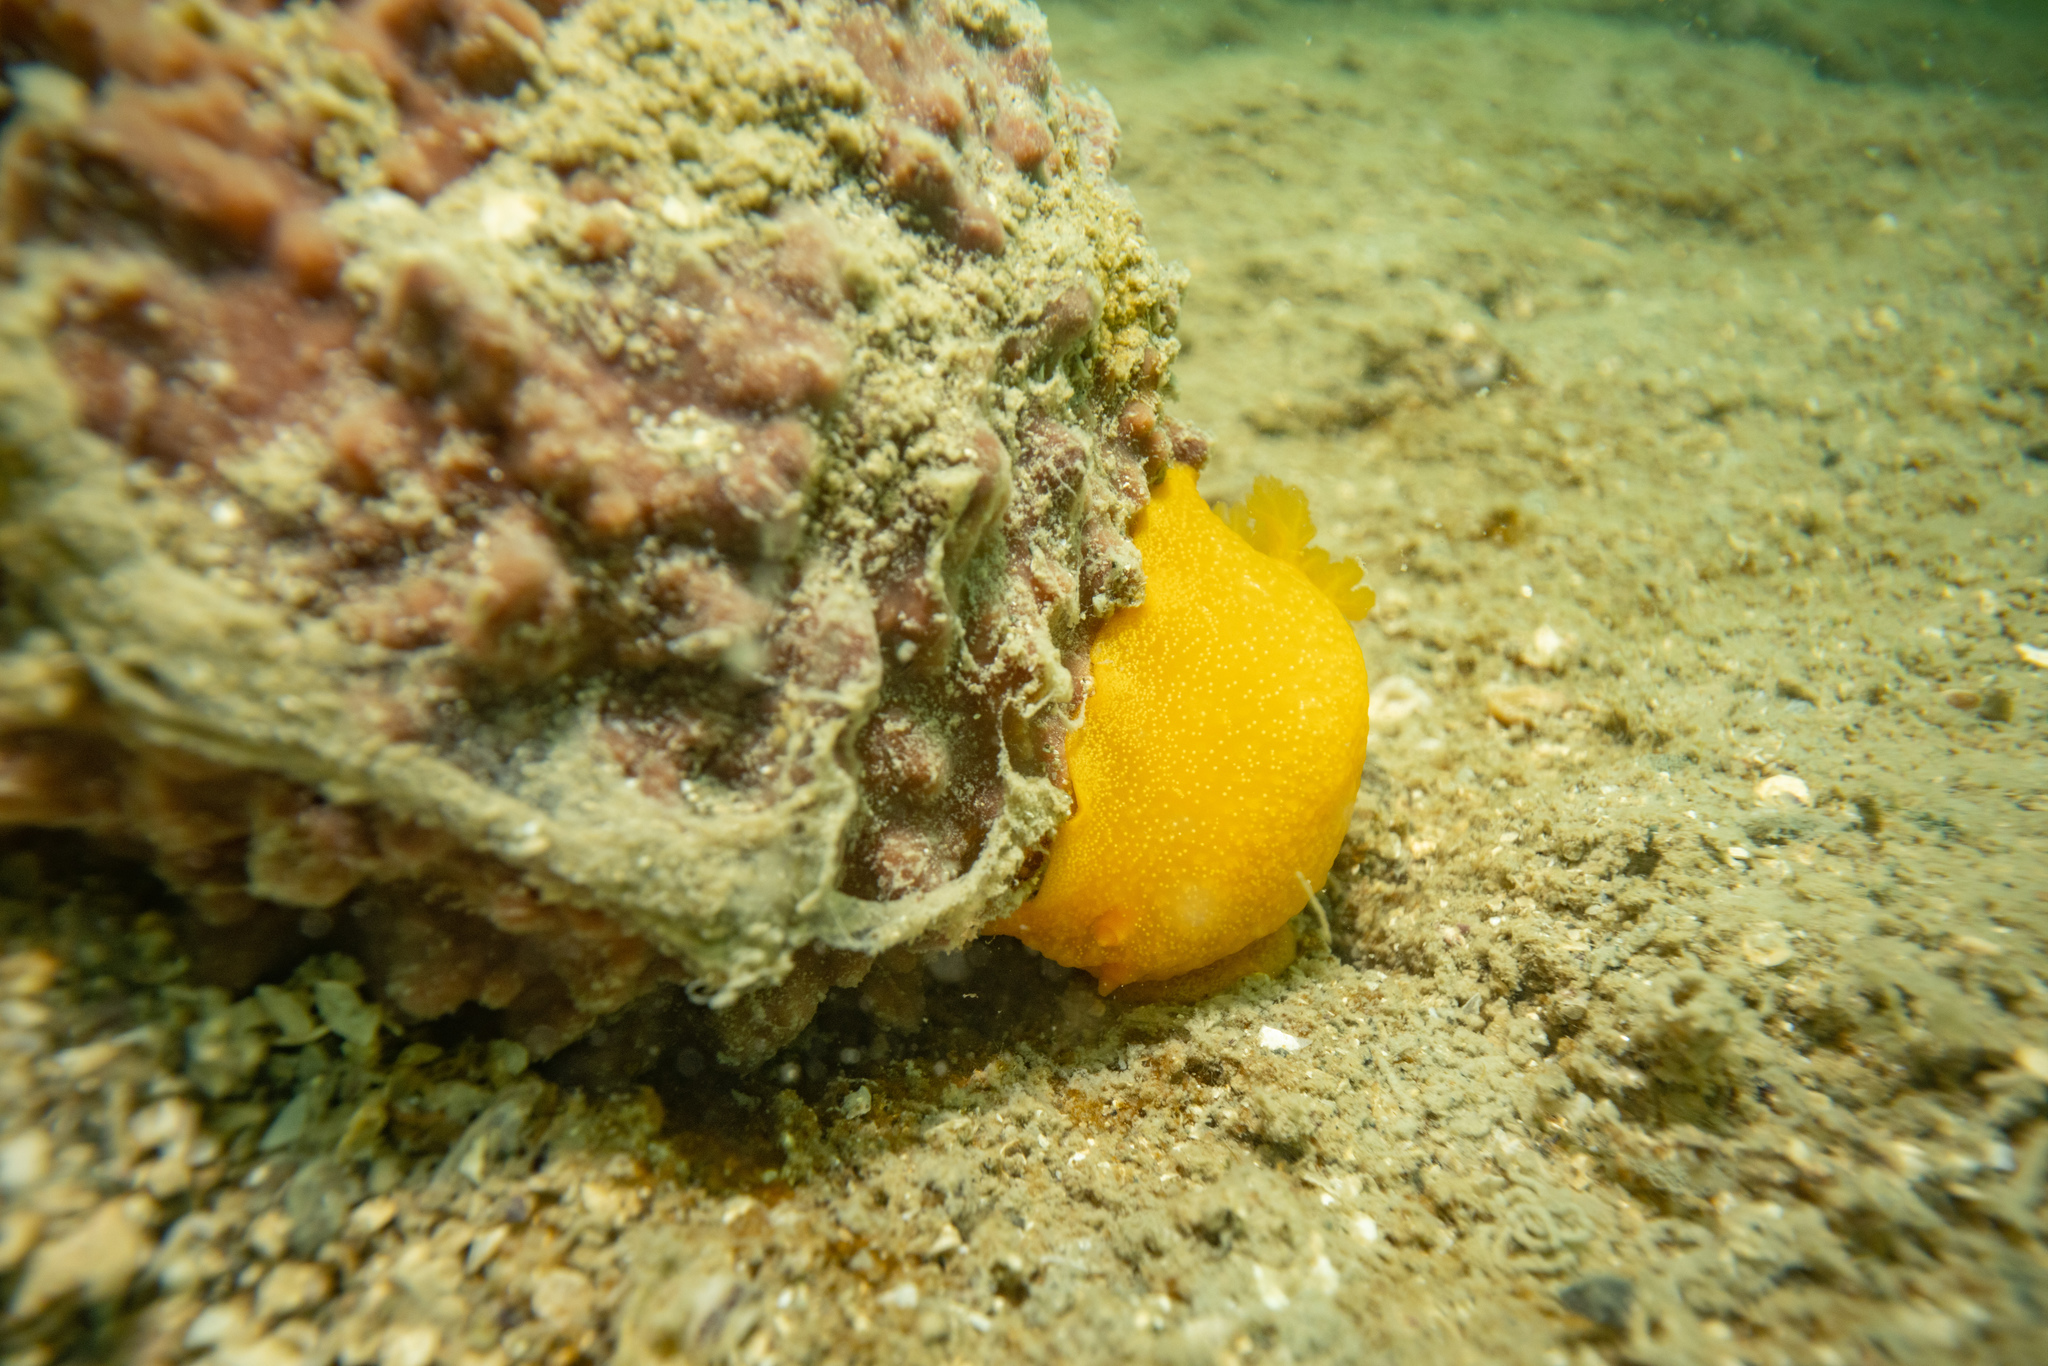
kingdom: Animalia
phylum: Mollusca
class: Gastropoda
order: Nudibranchia
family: Dendrodorididae
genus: Dendrodoris
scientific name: Dendrodoris citrina
